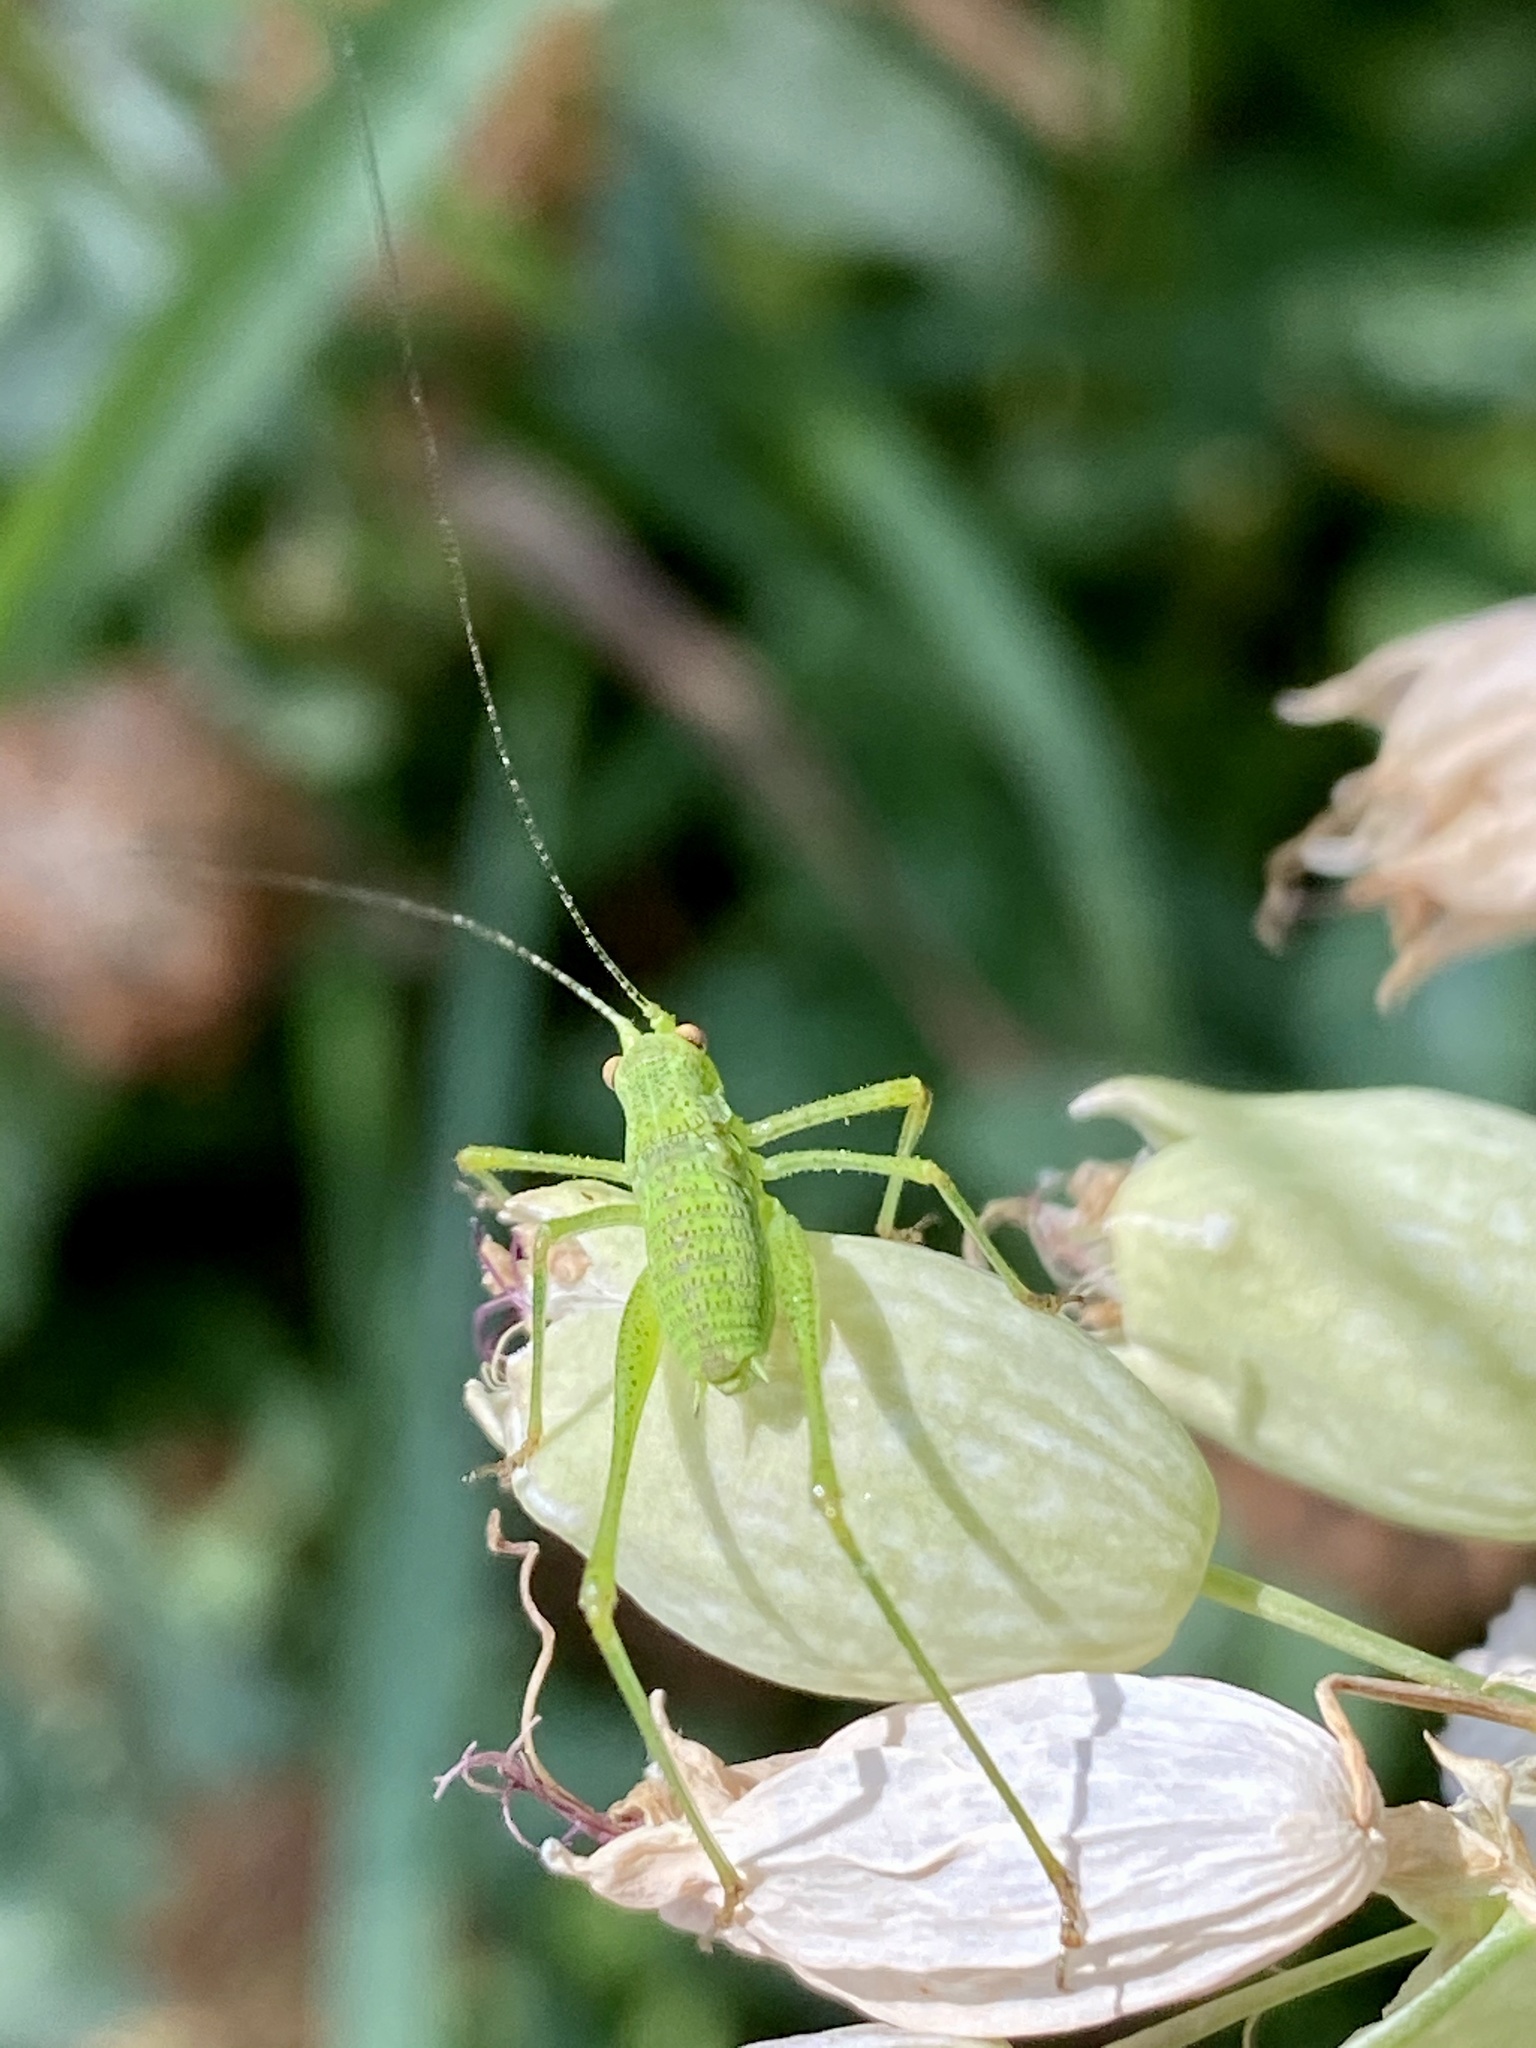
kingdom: Animalia
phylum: Arthropoda
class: Insecta
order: Orthoptera
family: Tettigoniidae
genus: Phaneroptera
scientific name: Phaneroptera nana
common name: Southern sickle bush-cricket
